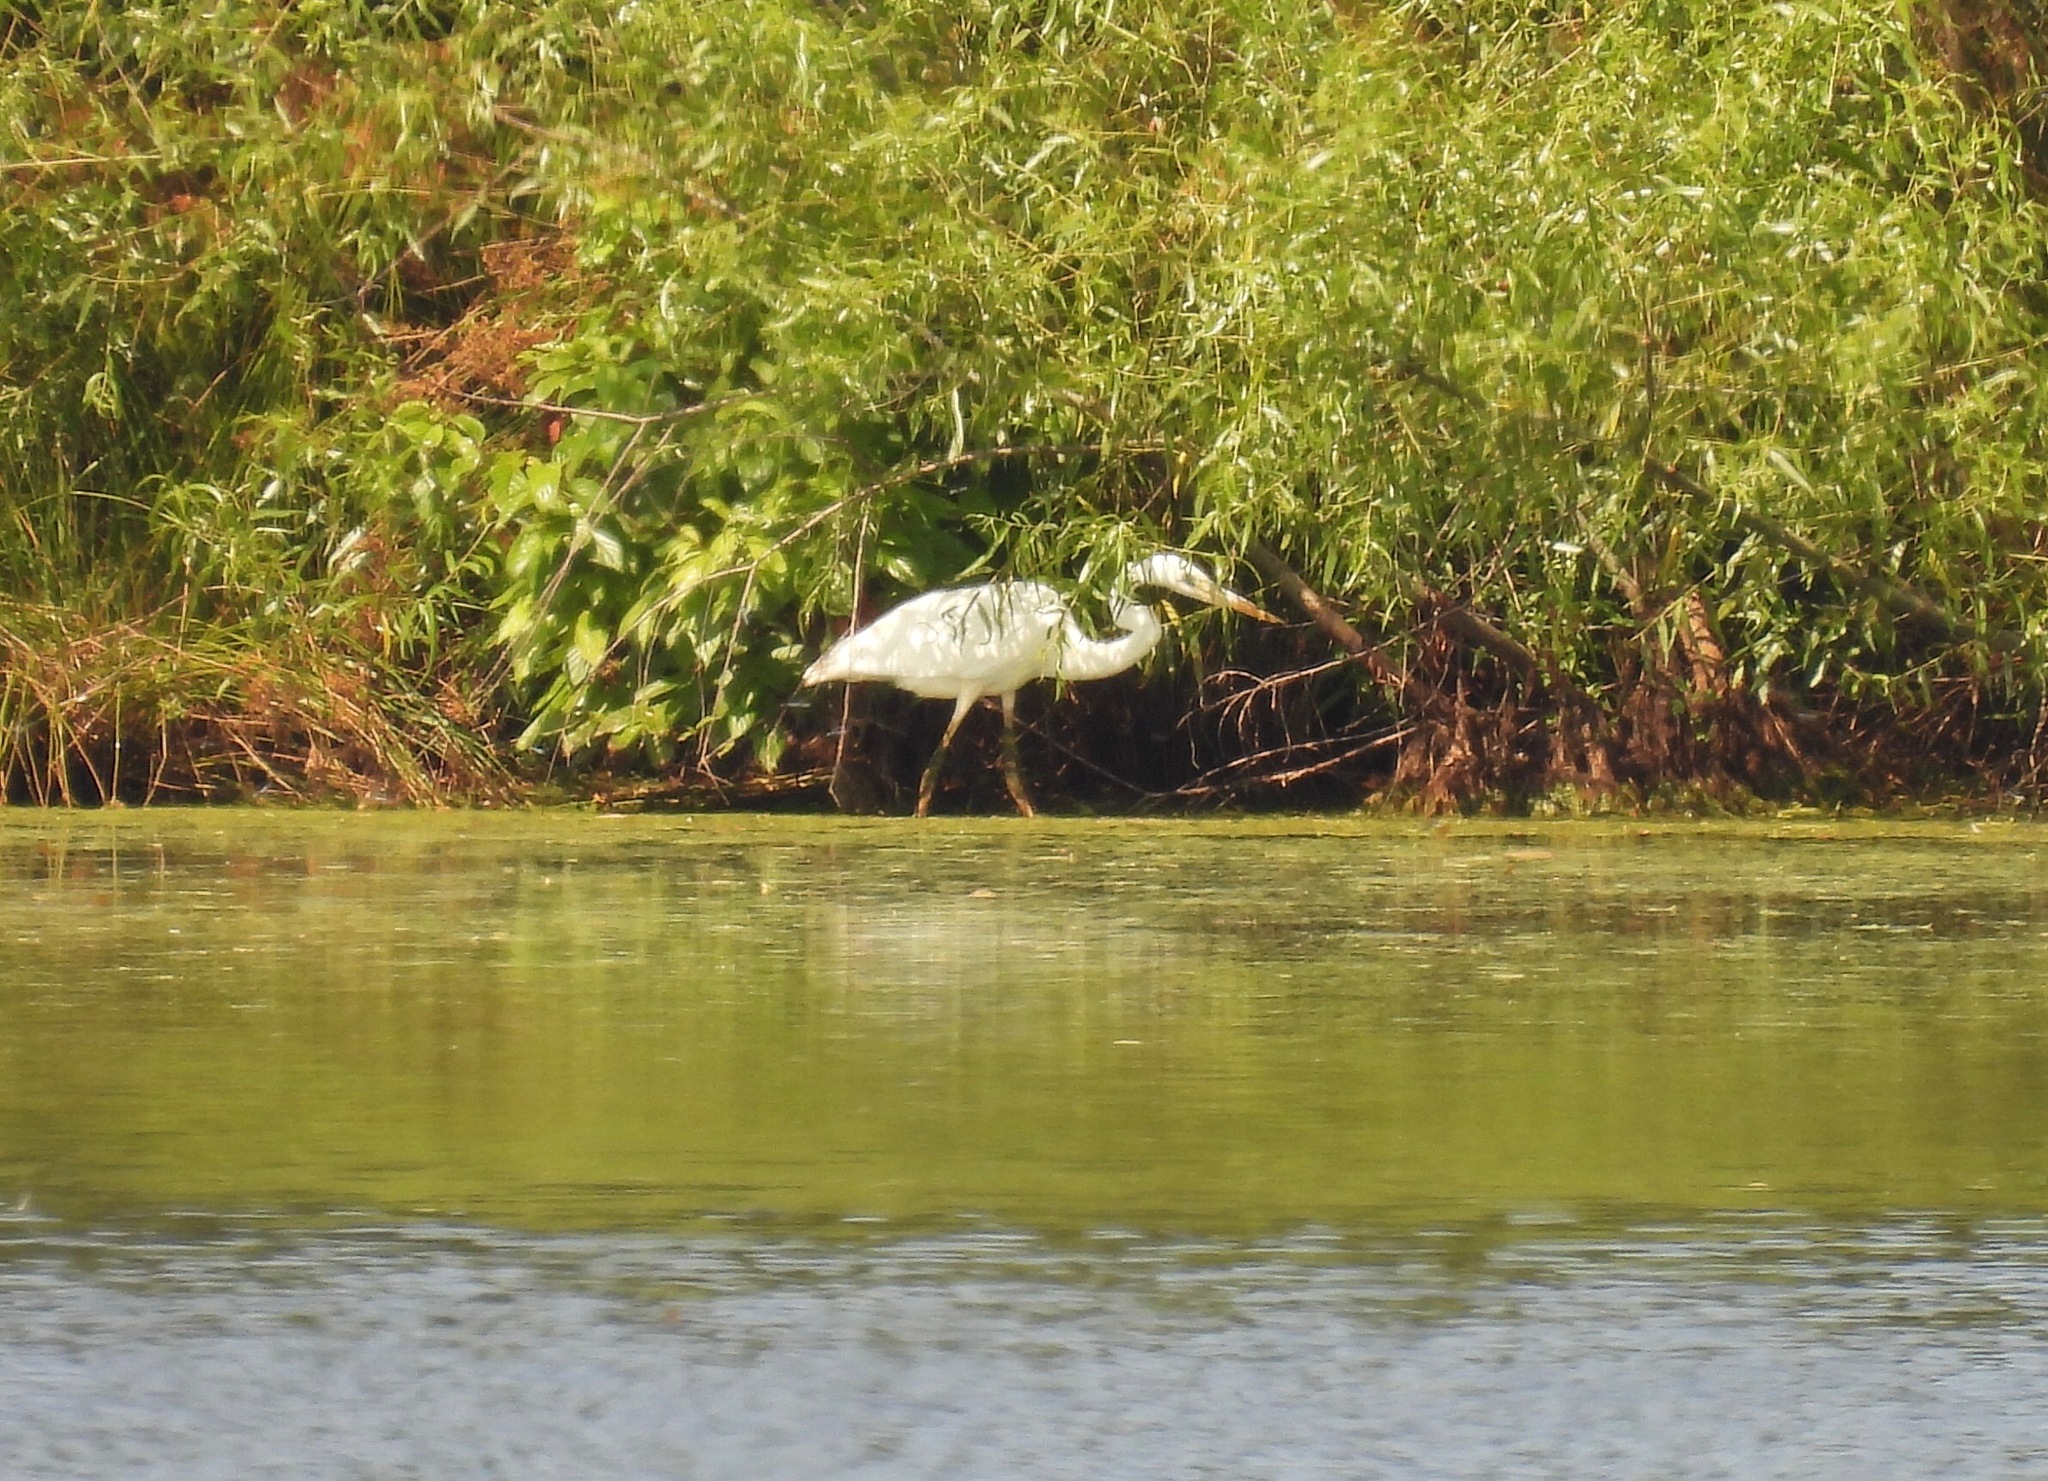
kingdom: Animalia
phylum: Chordata
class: Aves
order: Pelecaniformes
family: Ardeidae
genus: Ardea
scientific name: Ardea herodias
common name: Great blue heron
